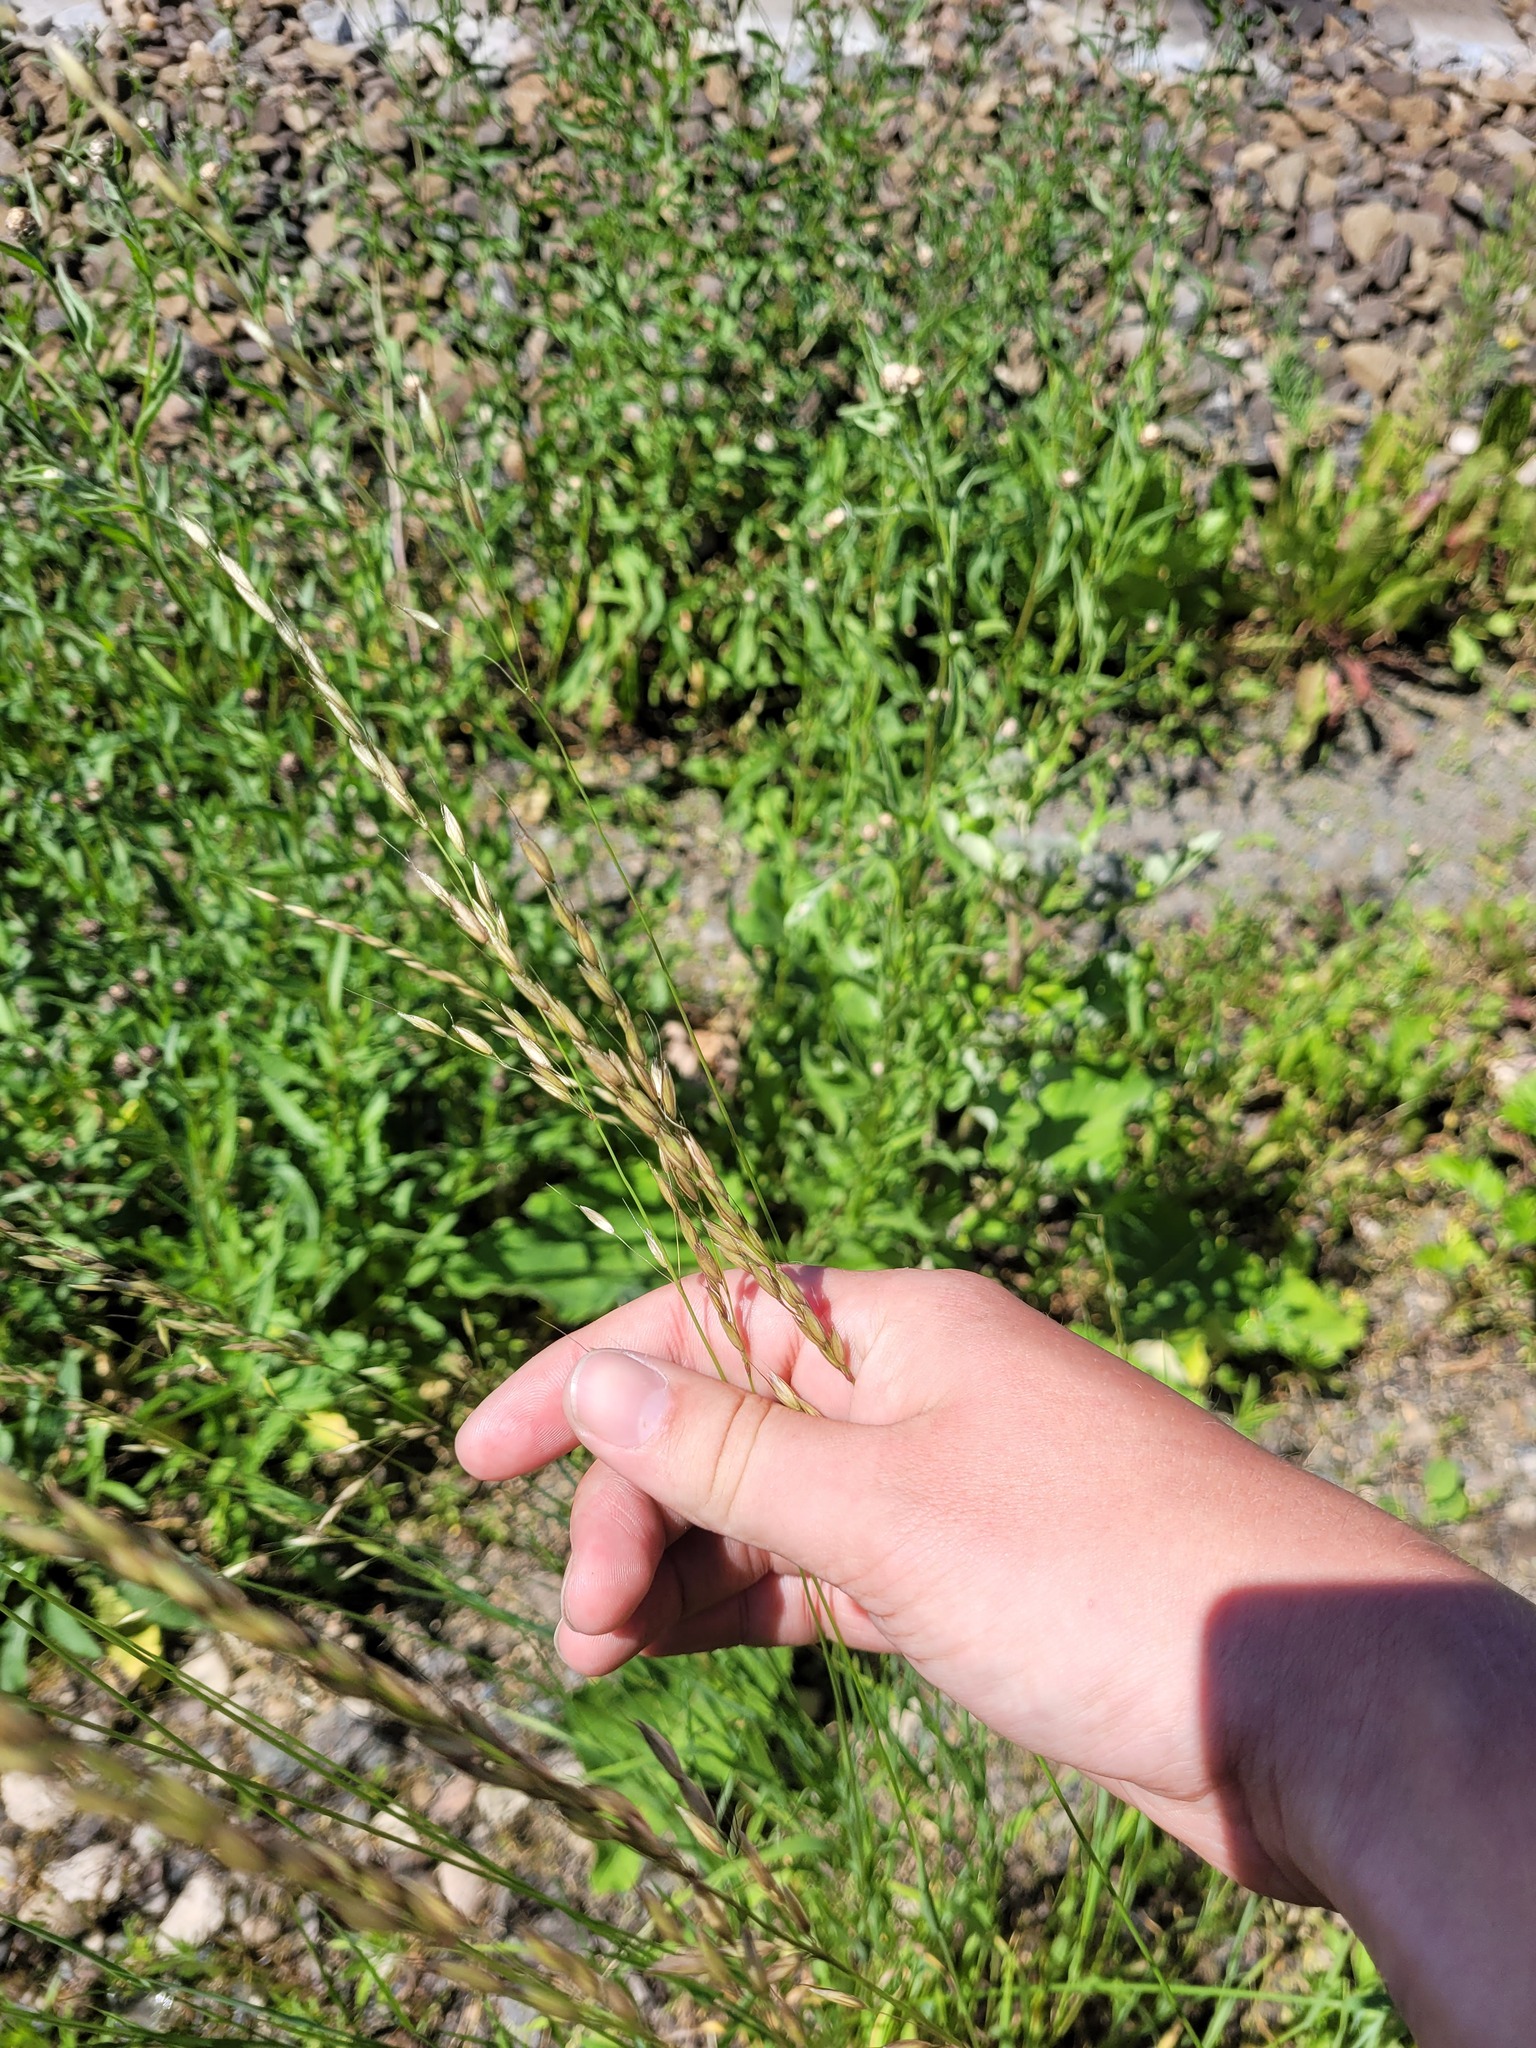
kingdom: Plantae
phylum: Tracheophyta
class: Liliopsida
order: Poales
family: Poaceae
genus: Arrhenatherum
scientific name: Arrhenatherum elatius
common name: Tall oatgrass
